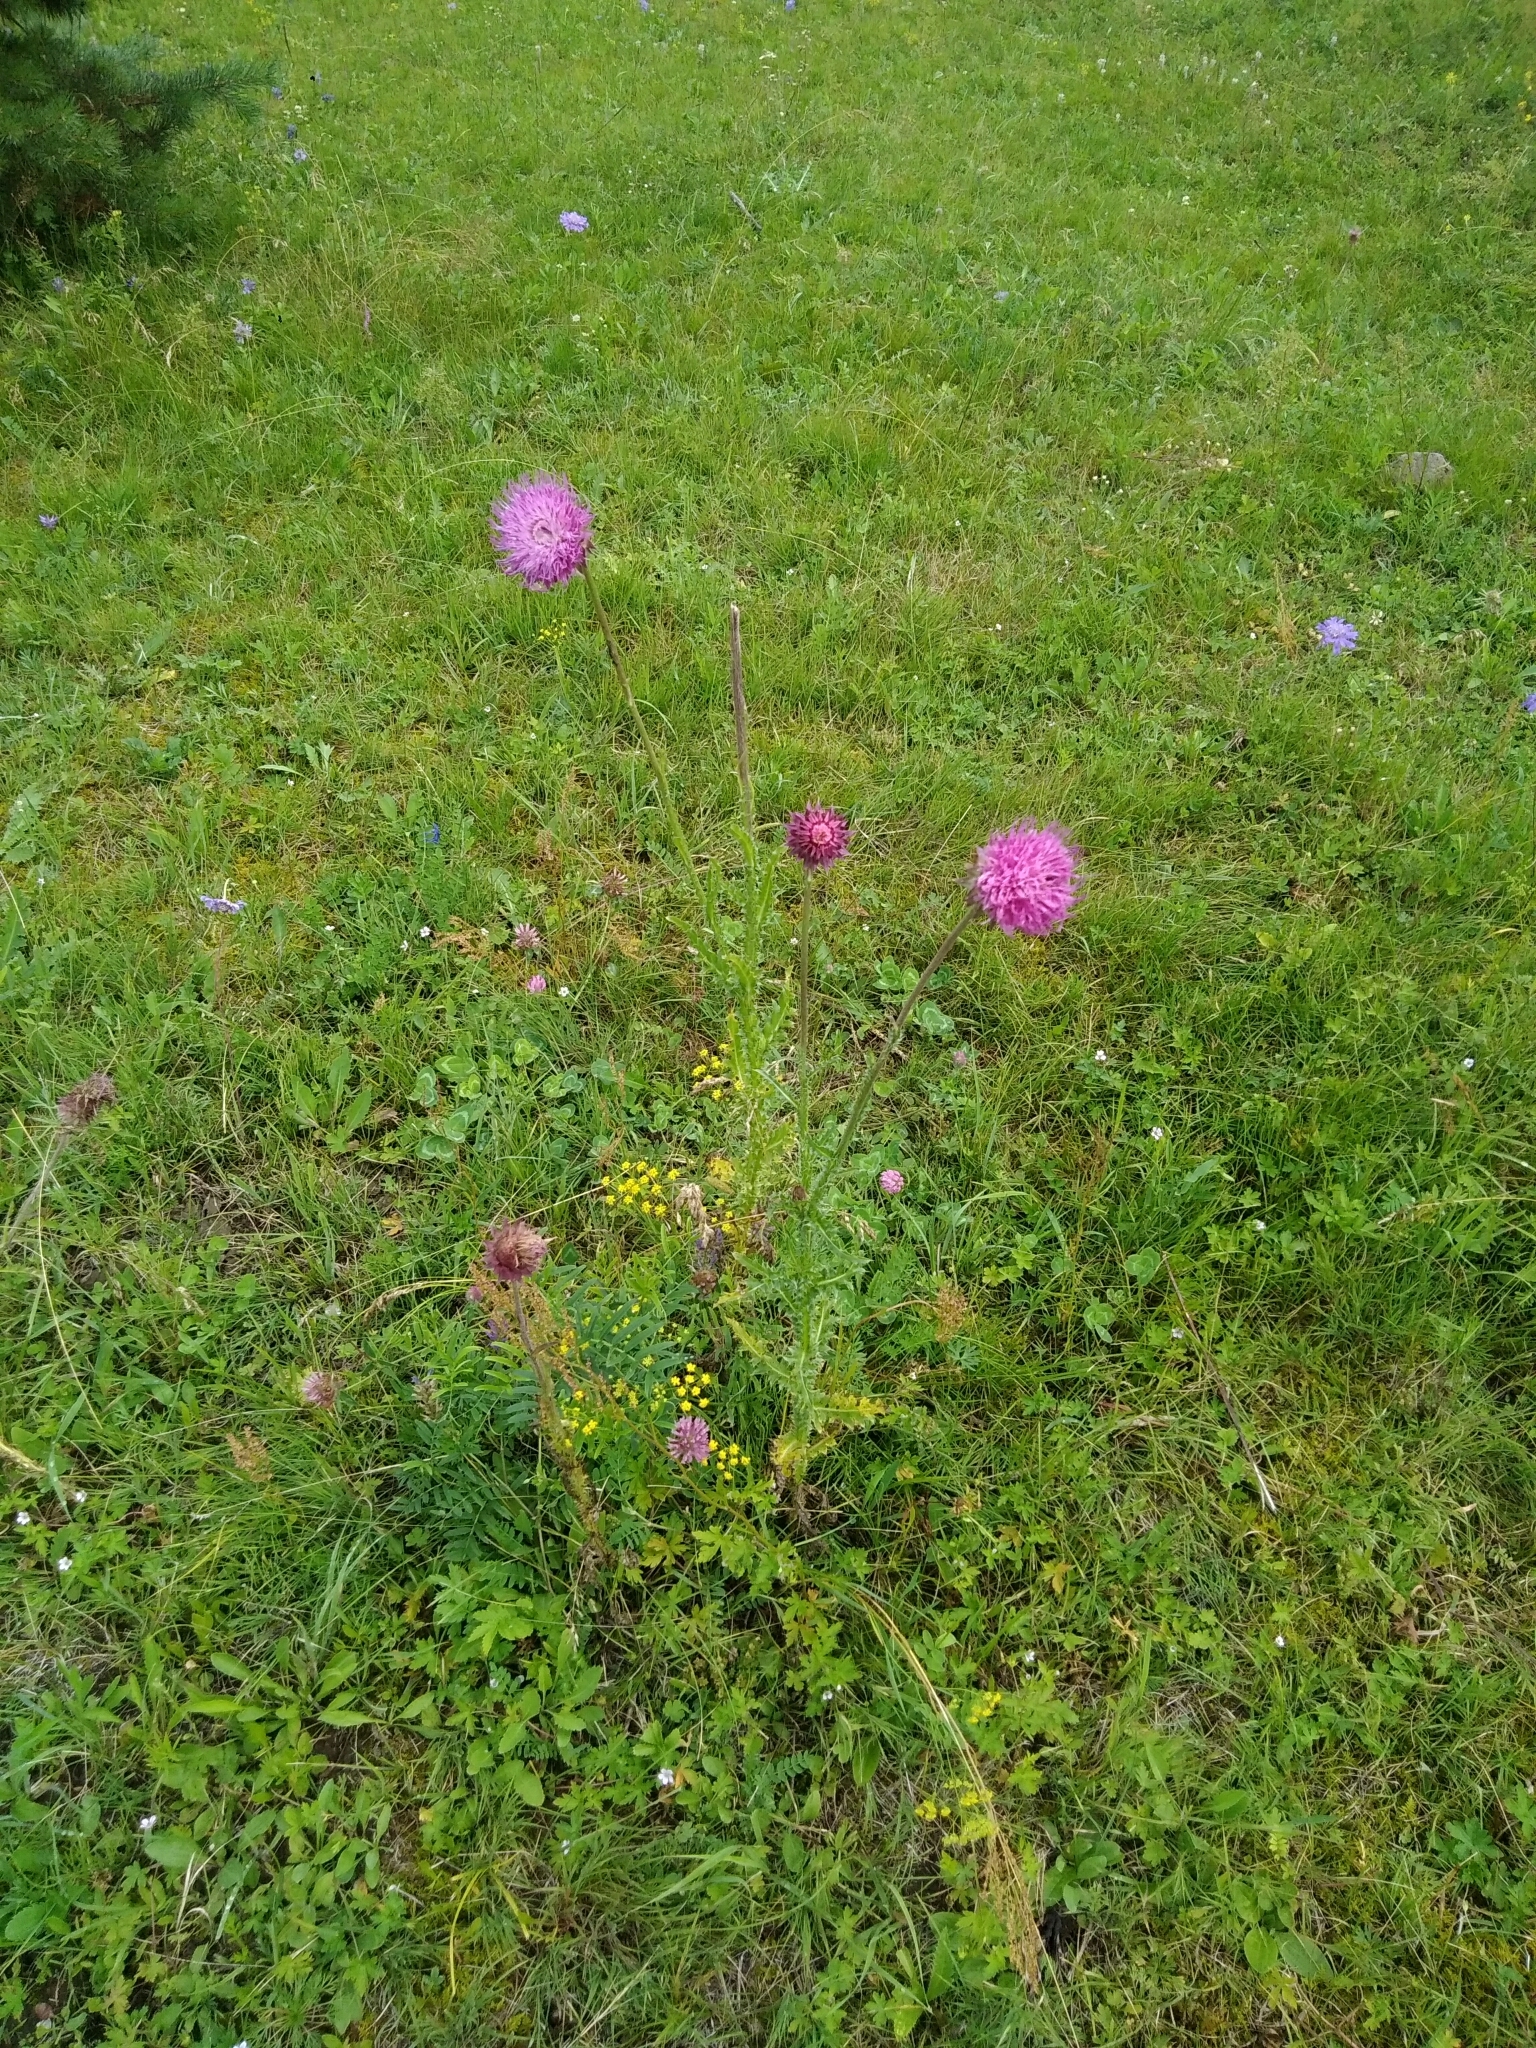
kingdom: Plantae
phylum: Tracheophyta
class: Magnoliopsida
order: Asterales
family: Asteraceae
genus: Carduus
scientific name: Carduus nutans
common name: Musk thistle
